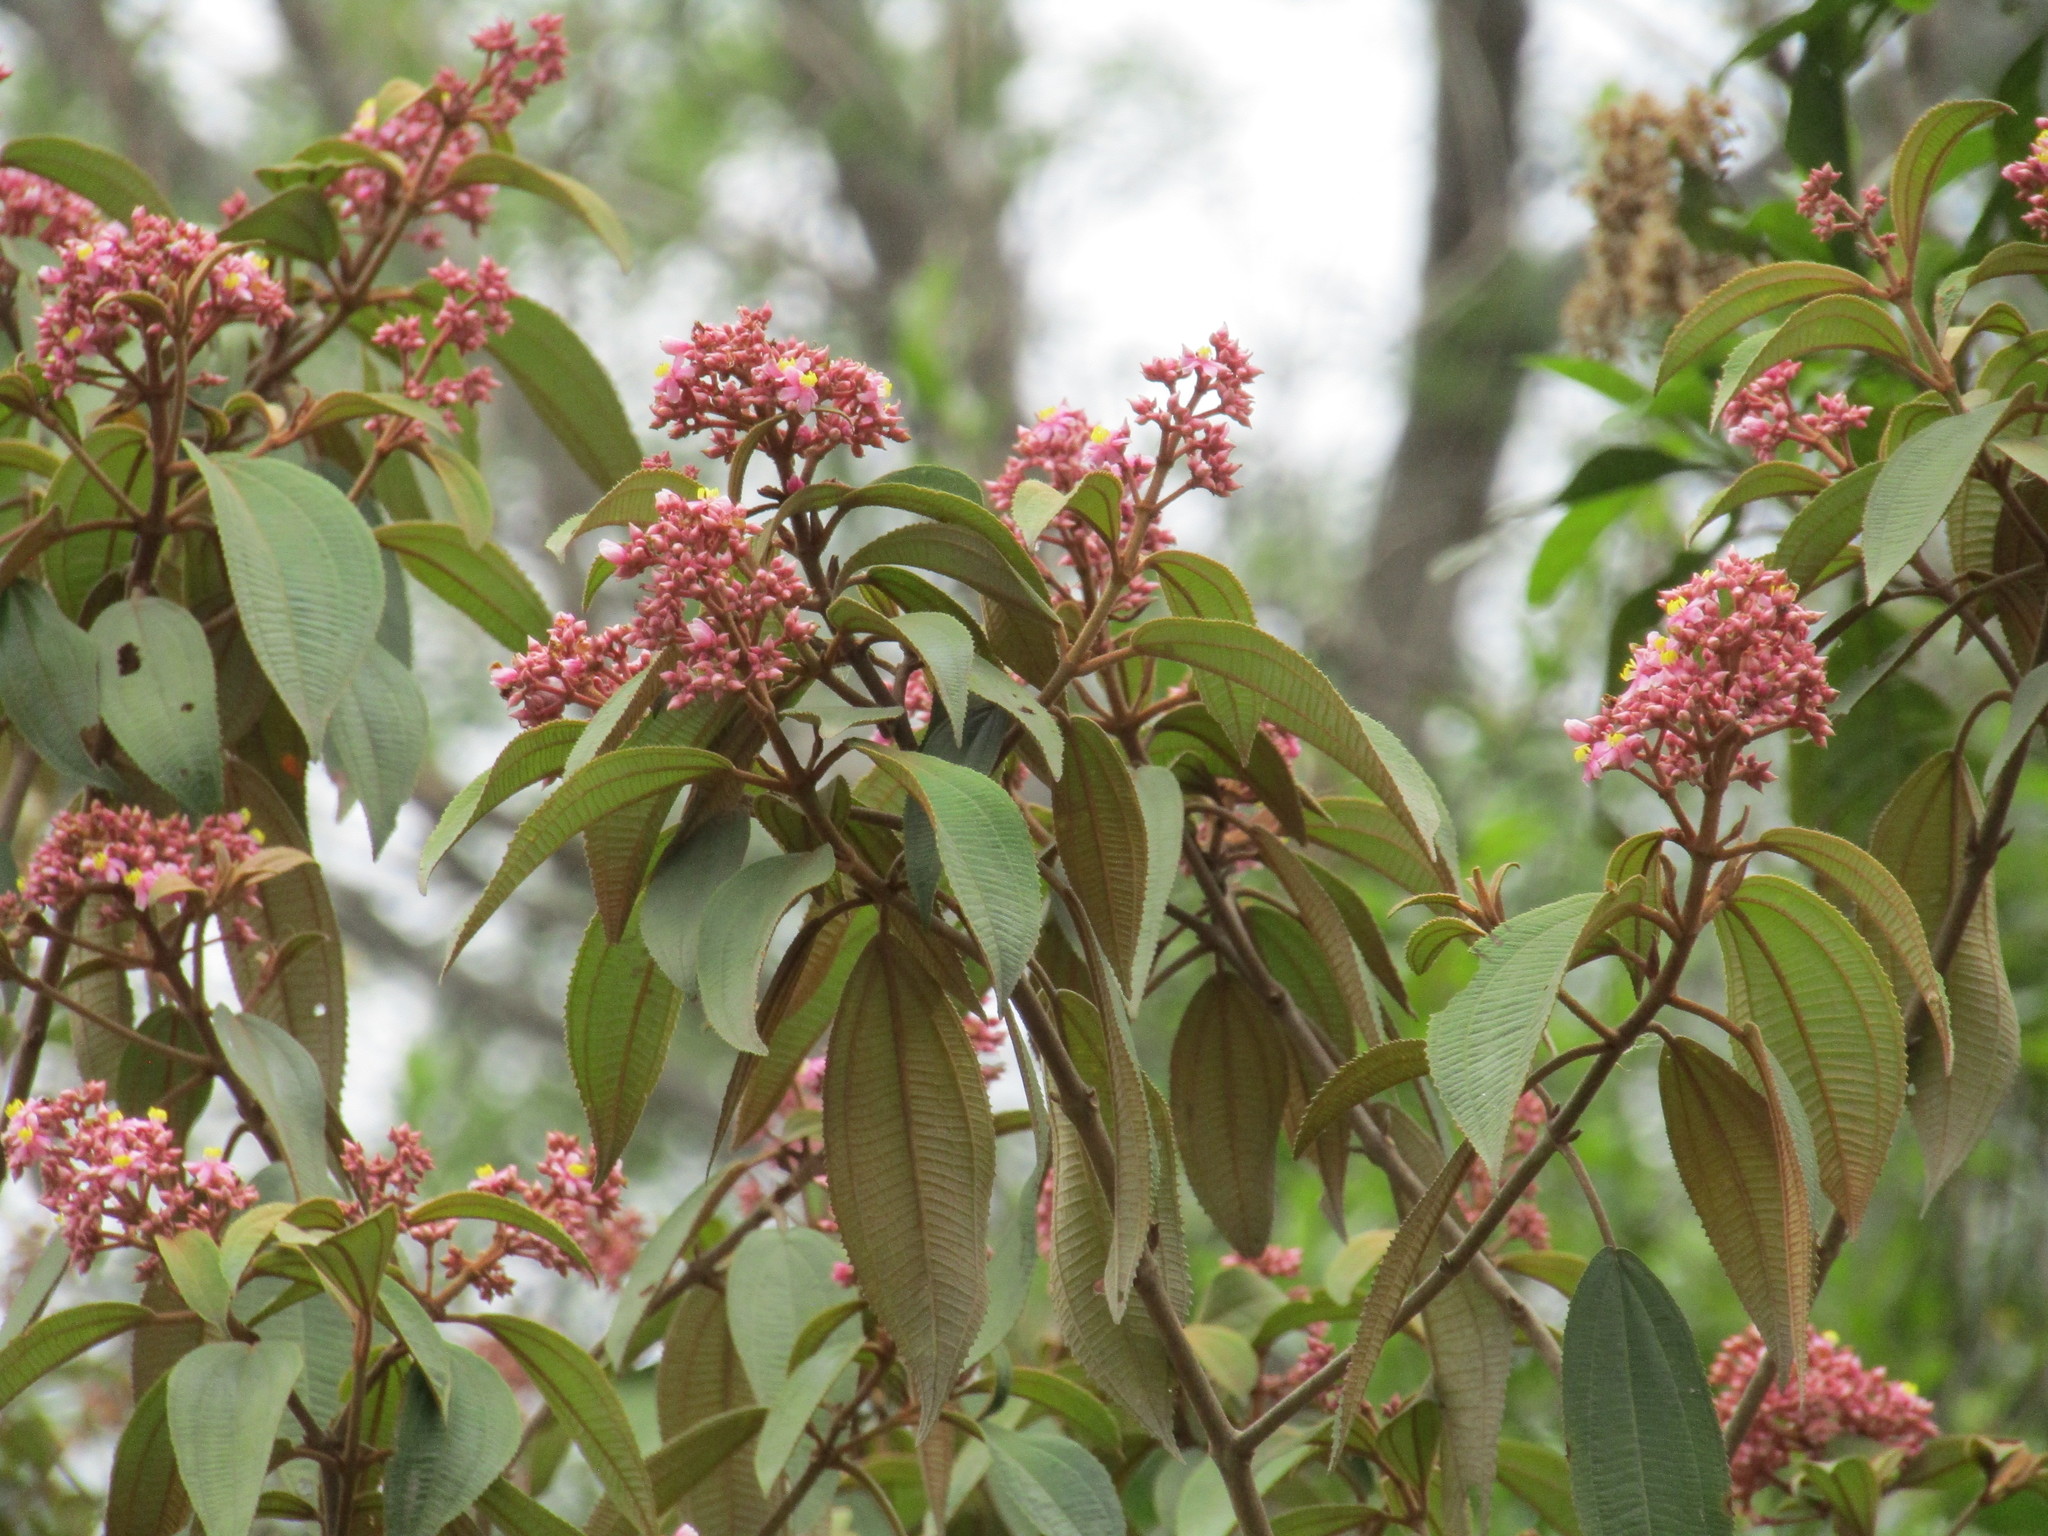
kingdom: Plantae
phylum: Tracheophyta
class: Magnoliopsida
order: Myrtales
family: Melastomataceae
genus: Miconia
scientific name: Miconia xalapensis
